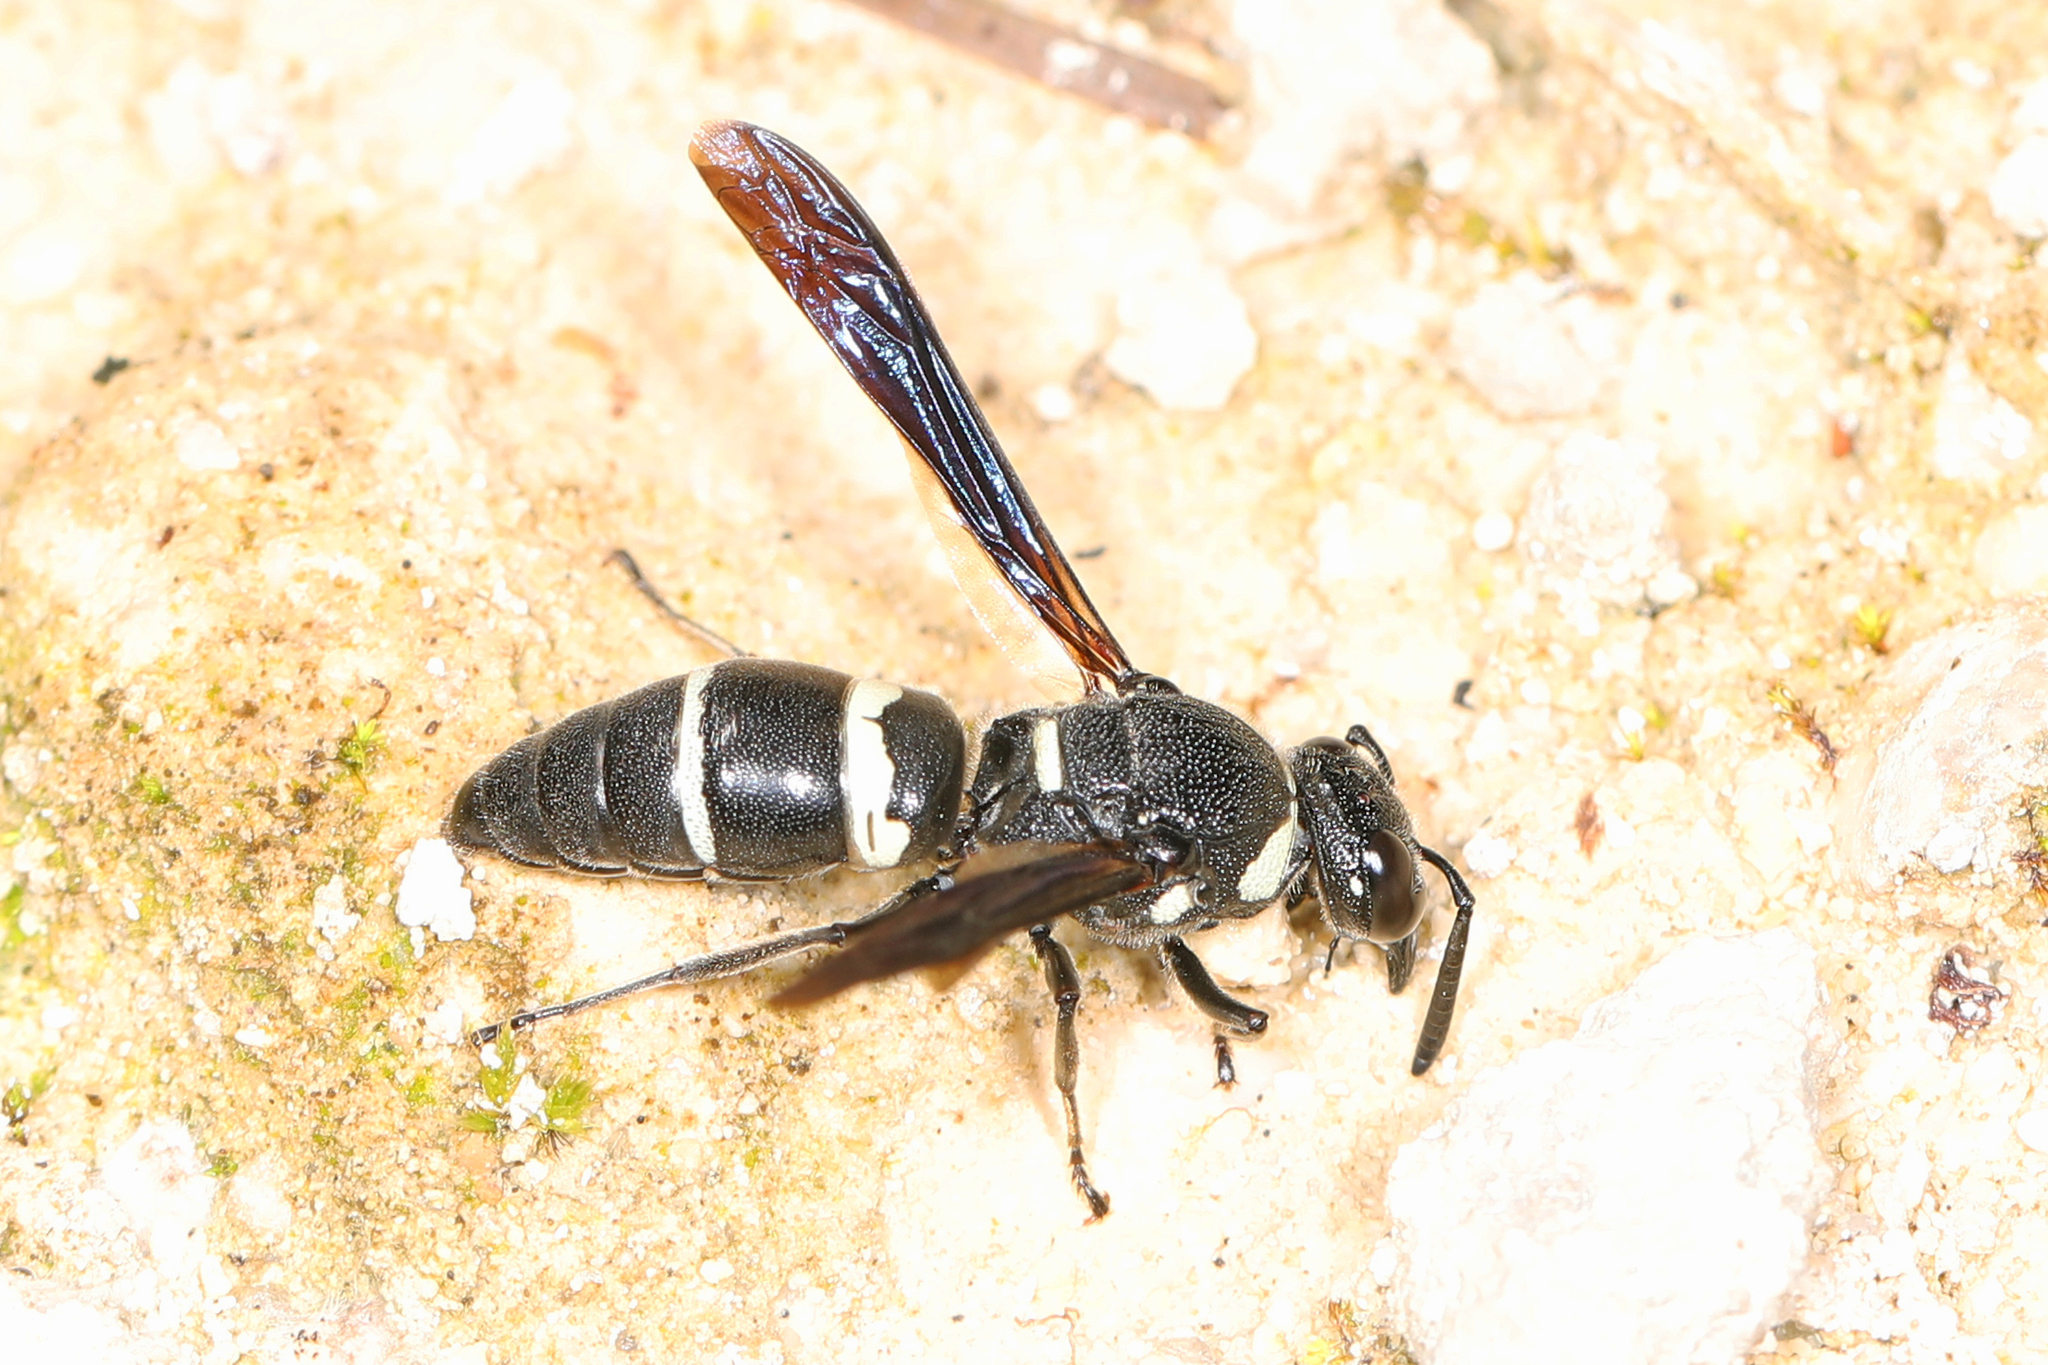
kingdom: Animalia
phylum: Arthropoda
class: Insecta
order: Hymenoptera
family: Eumenidae
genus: Euodynerus
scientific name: Euodynerus megaera
